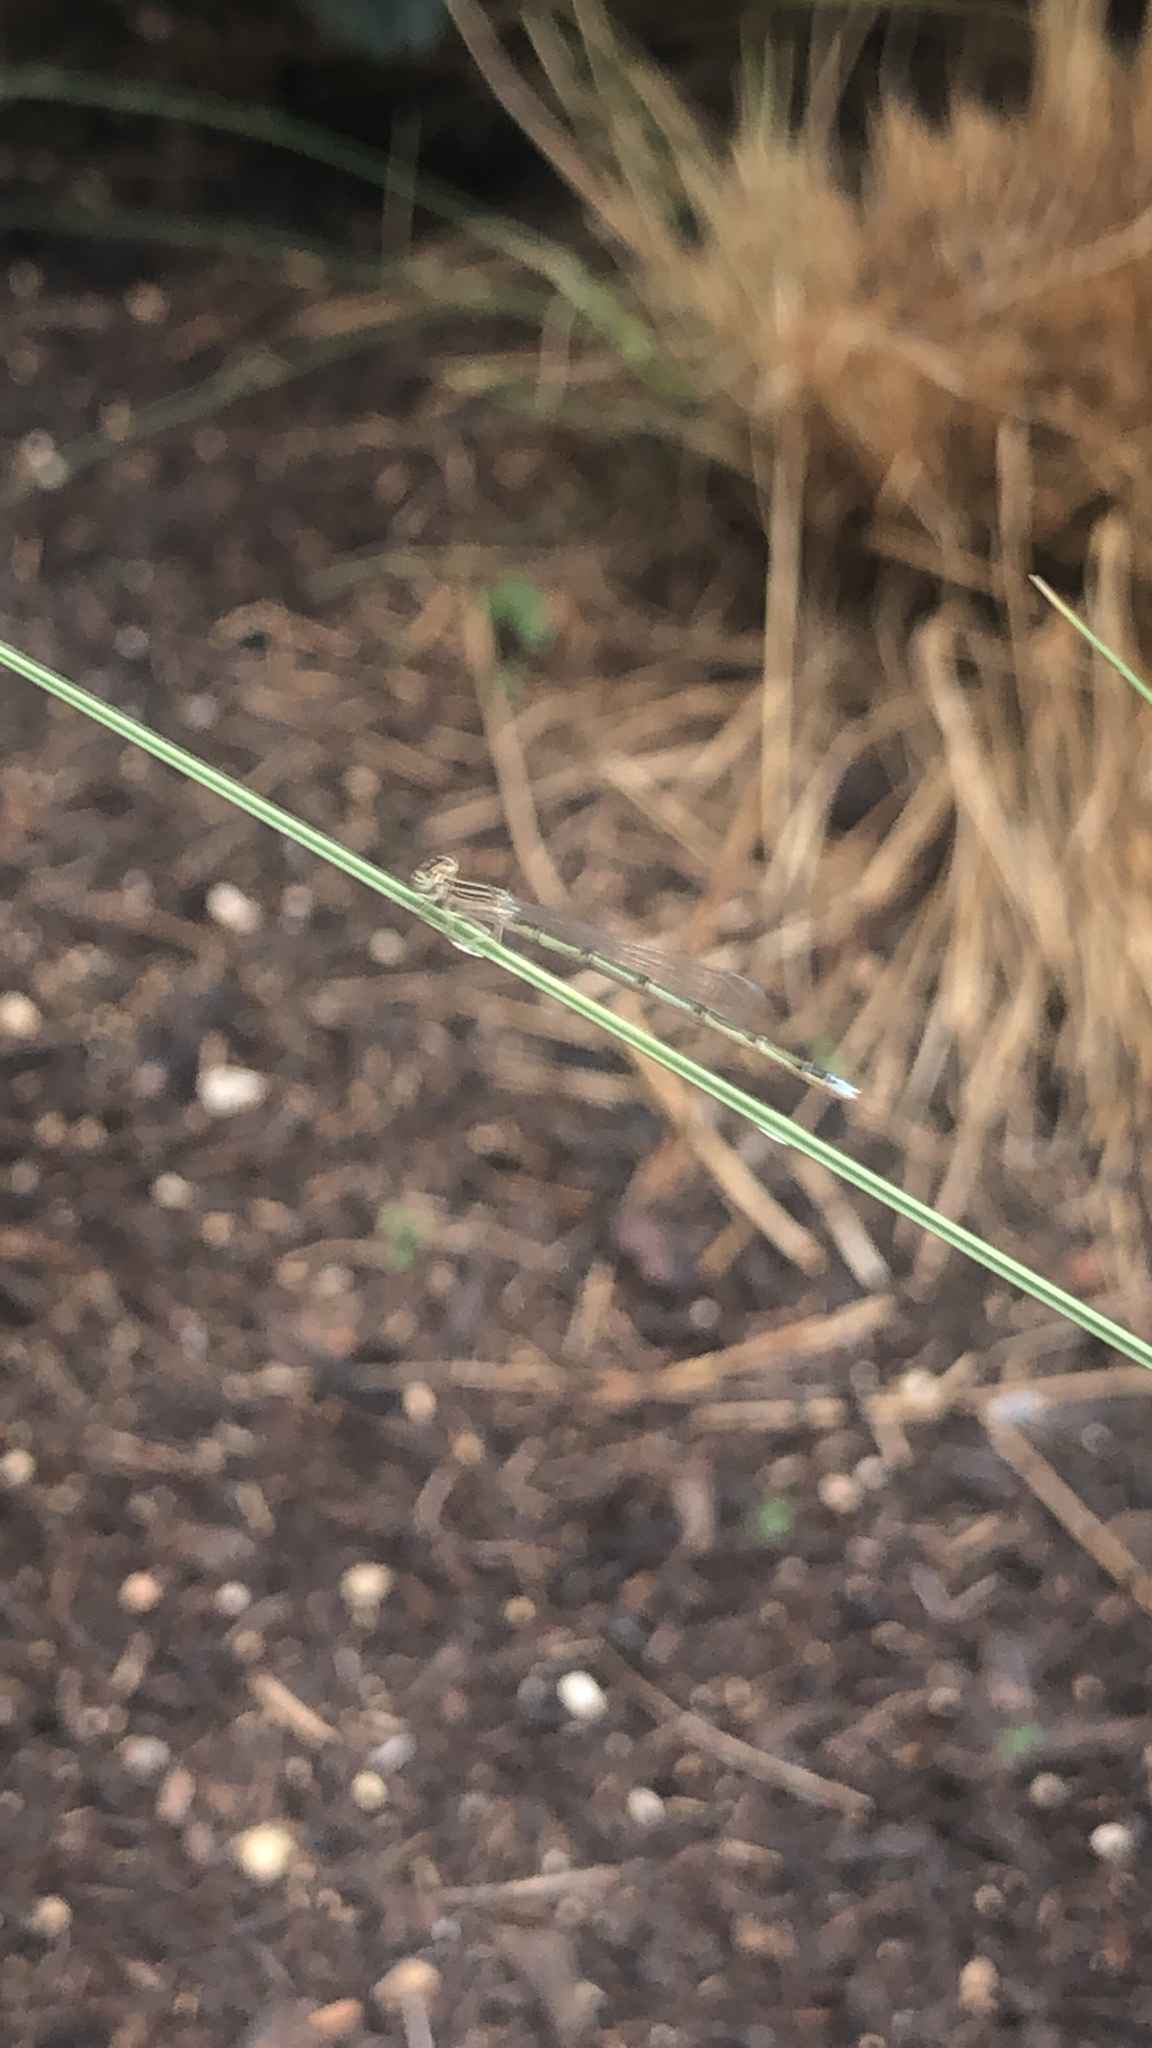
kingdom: Animalia
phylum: Arthropoda
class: Insecta
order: Odonata
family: Coenagrionidae
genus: Enallagma
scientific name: Enallagma basidens
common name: Double-striped bluet
